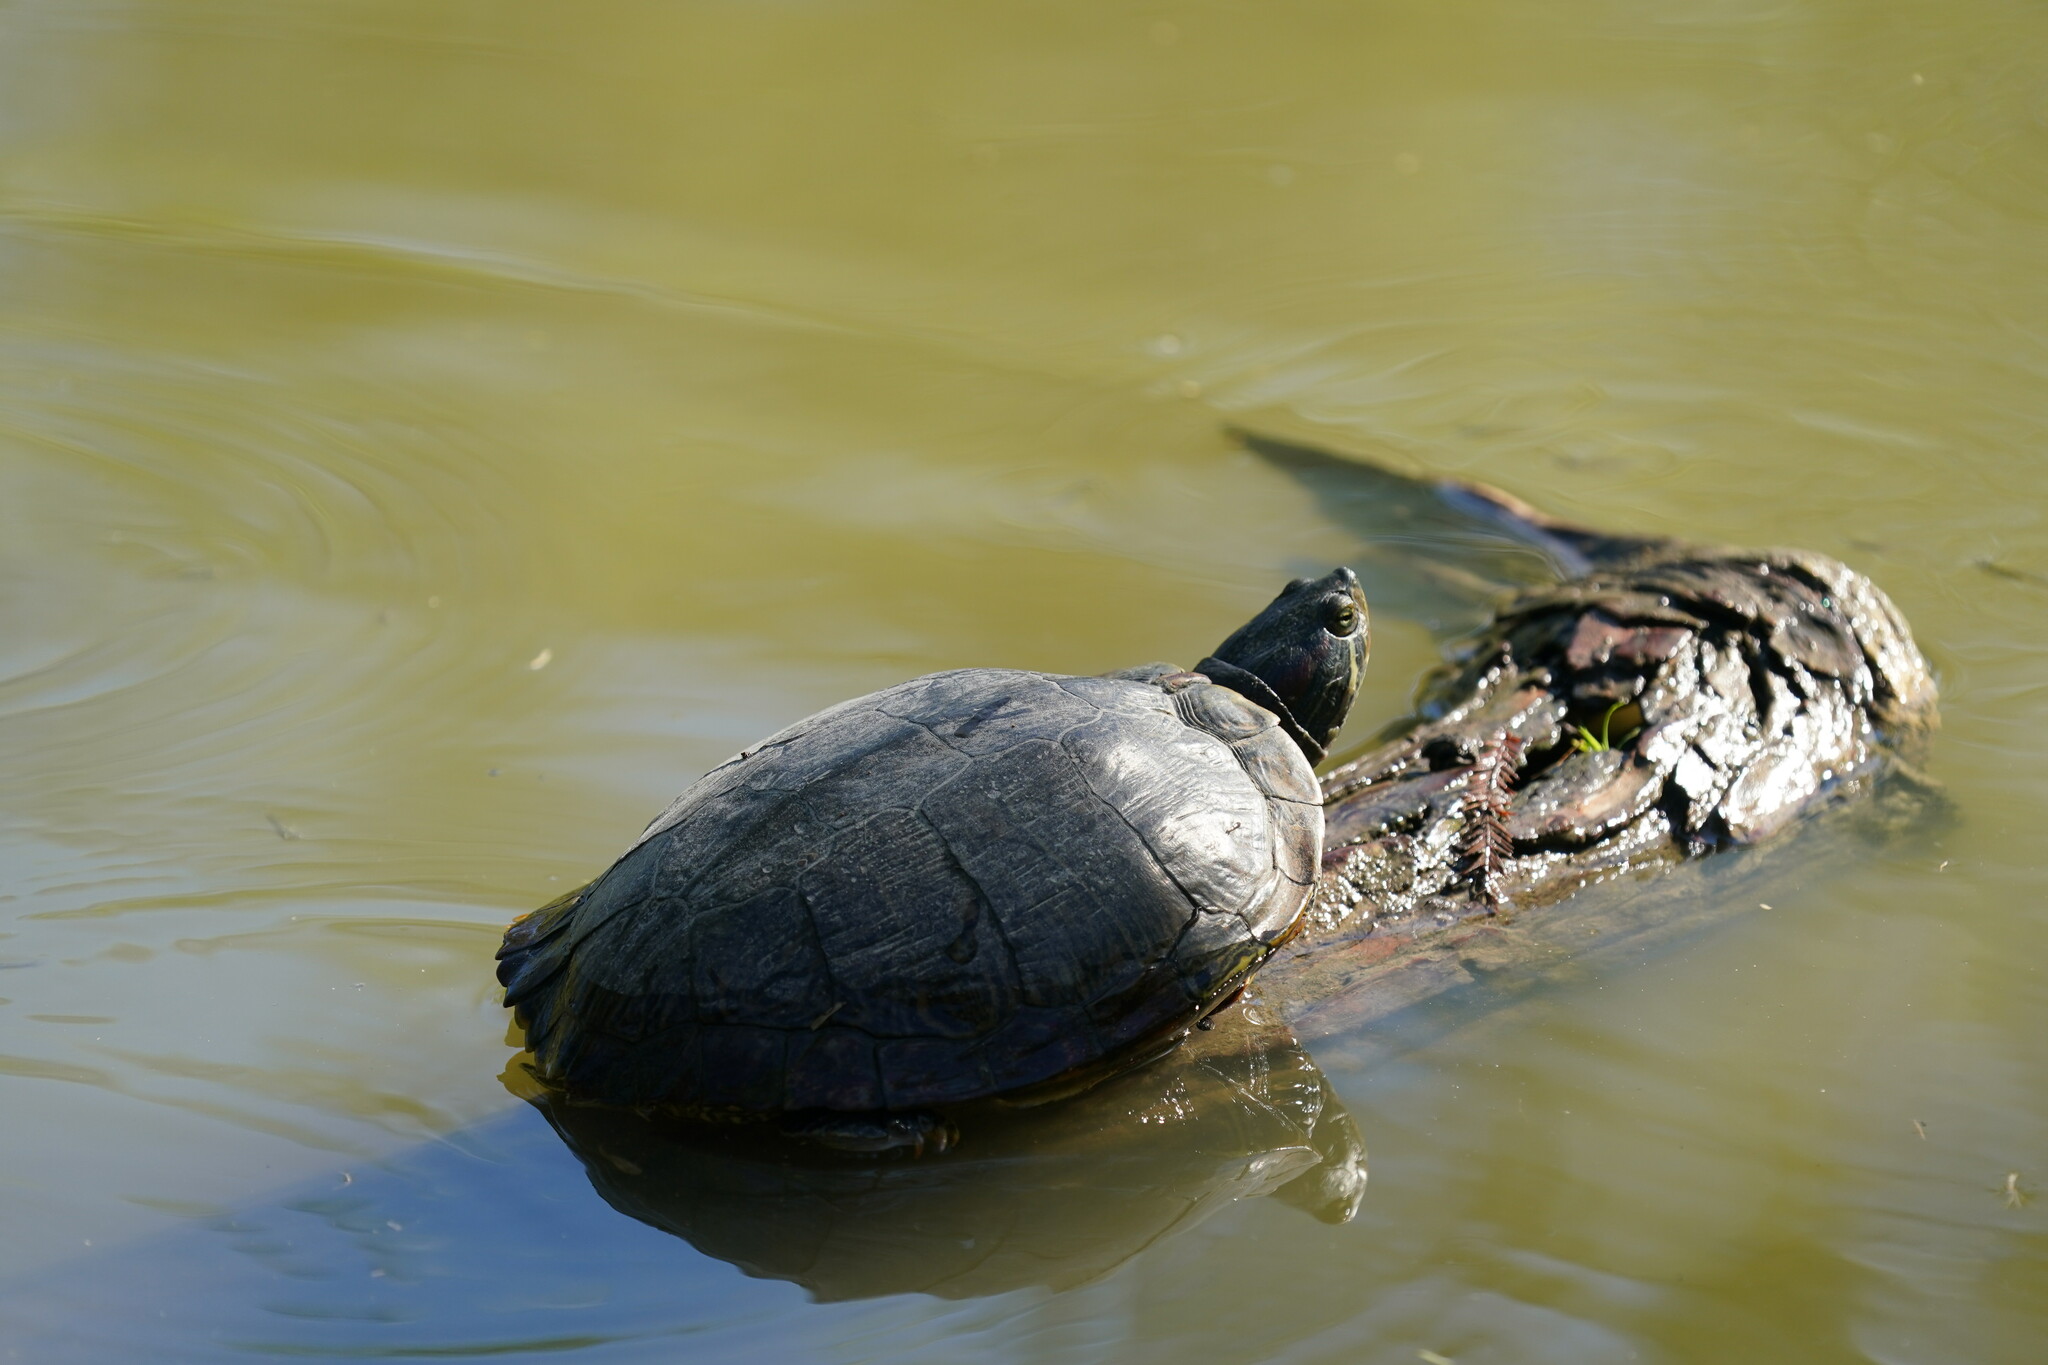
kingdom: Animalia
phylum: Chordata
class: Testudines
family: Emydidae
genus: Trachemys
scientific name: Trachemys scripta
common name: Slider
